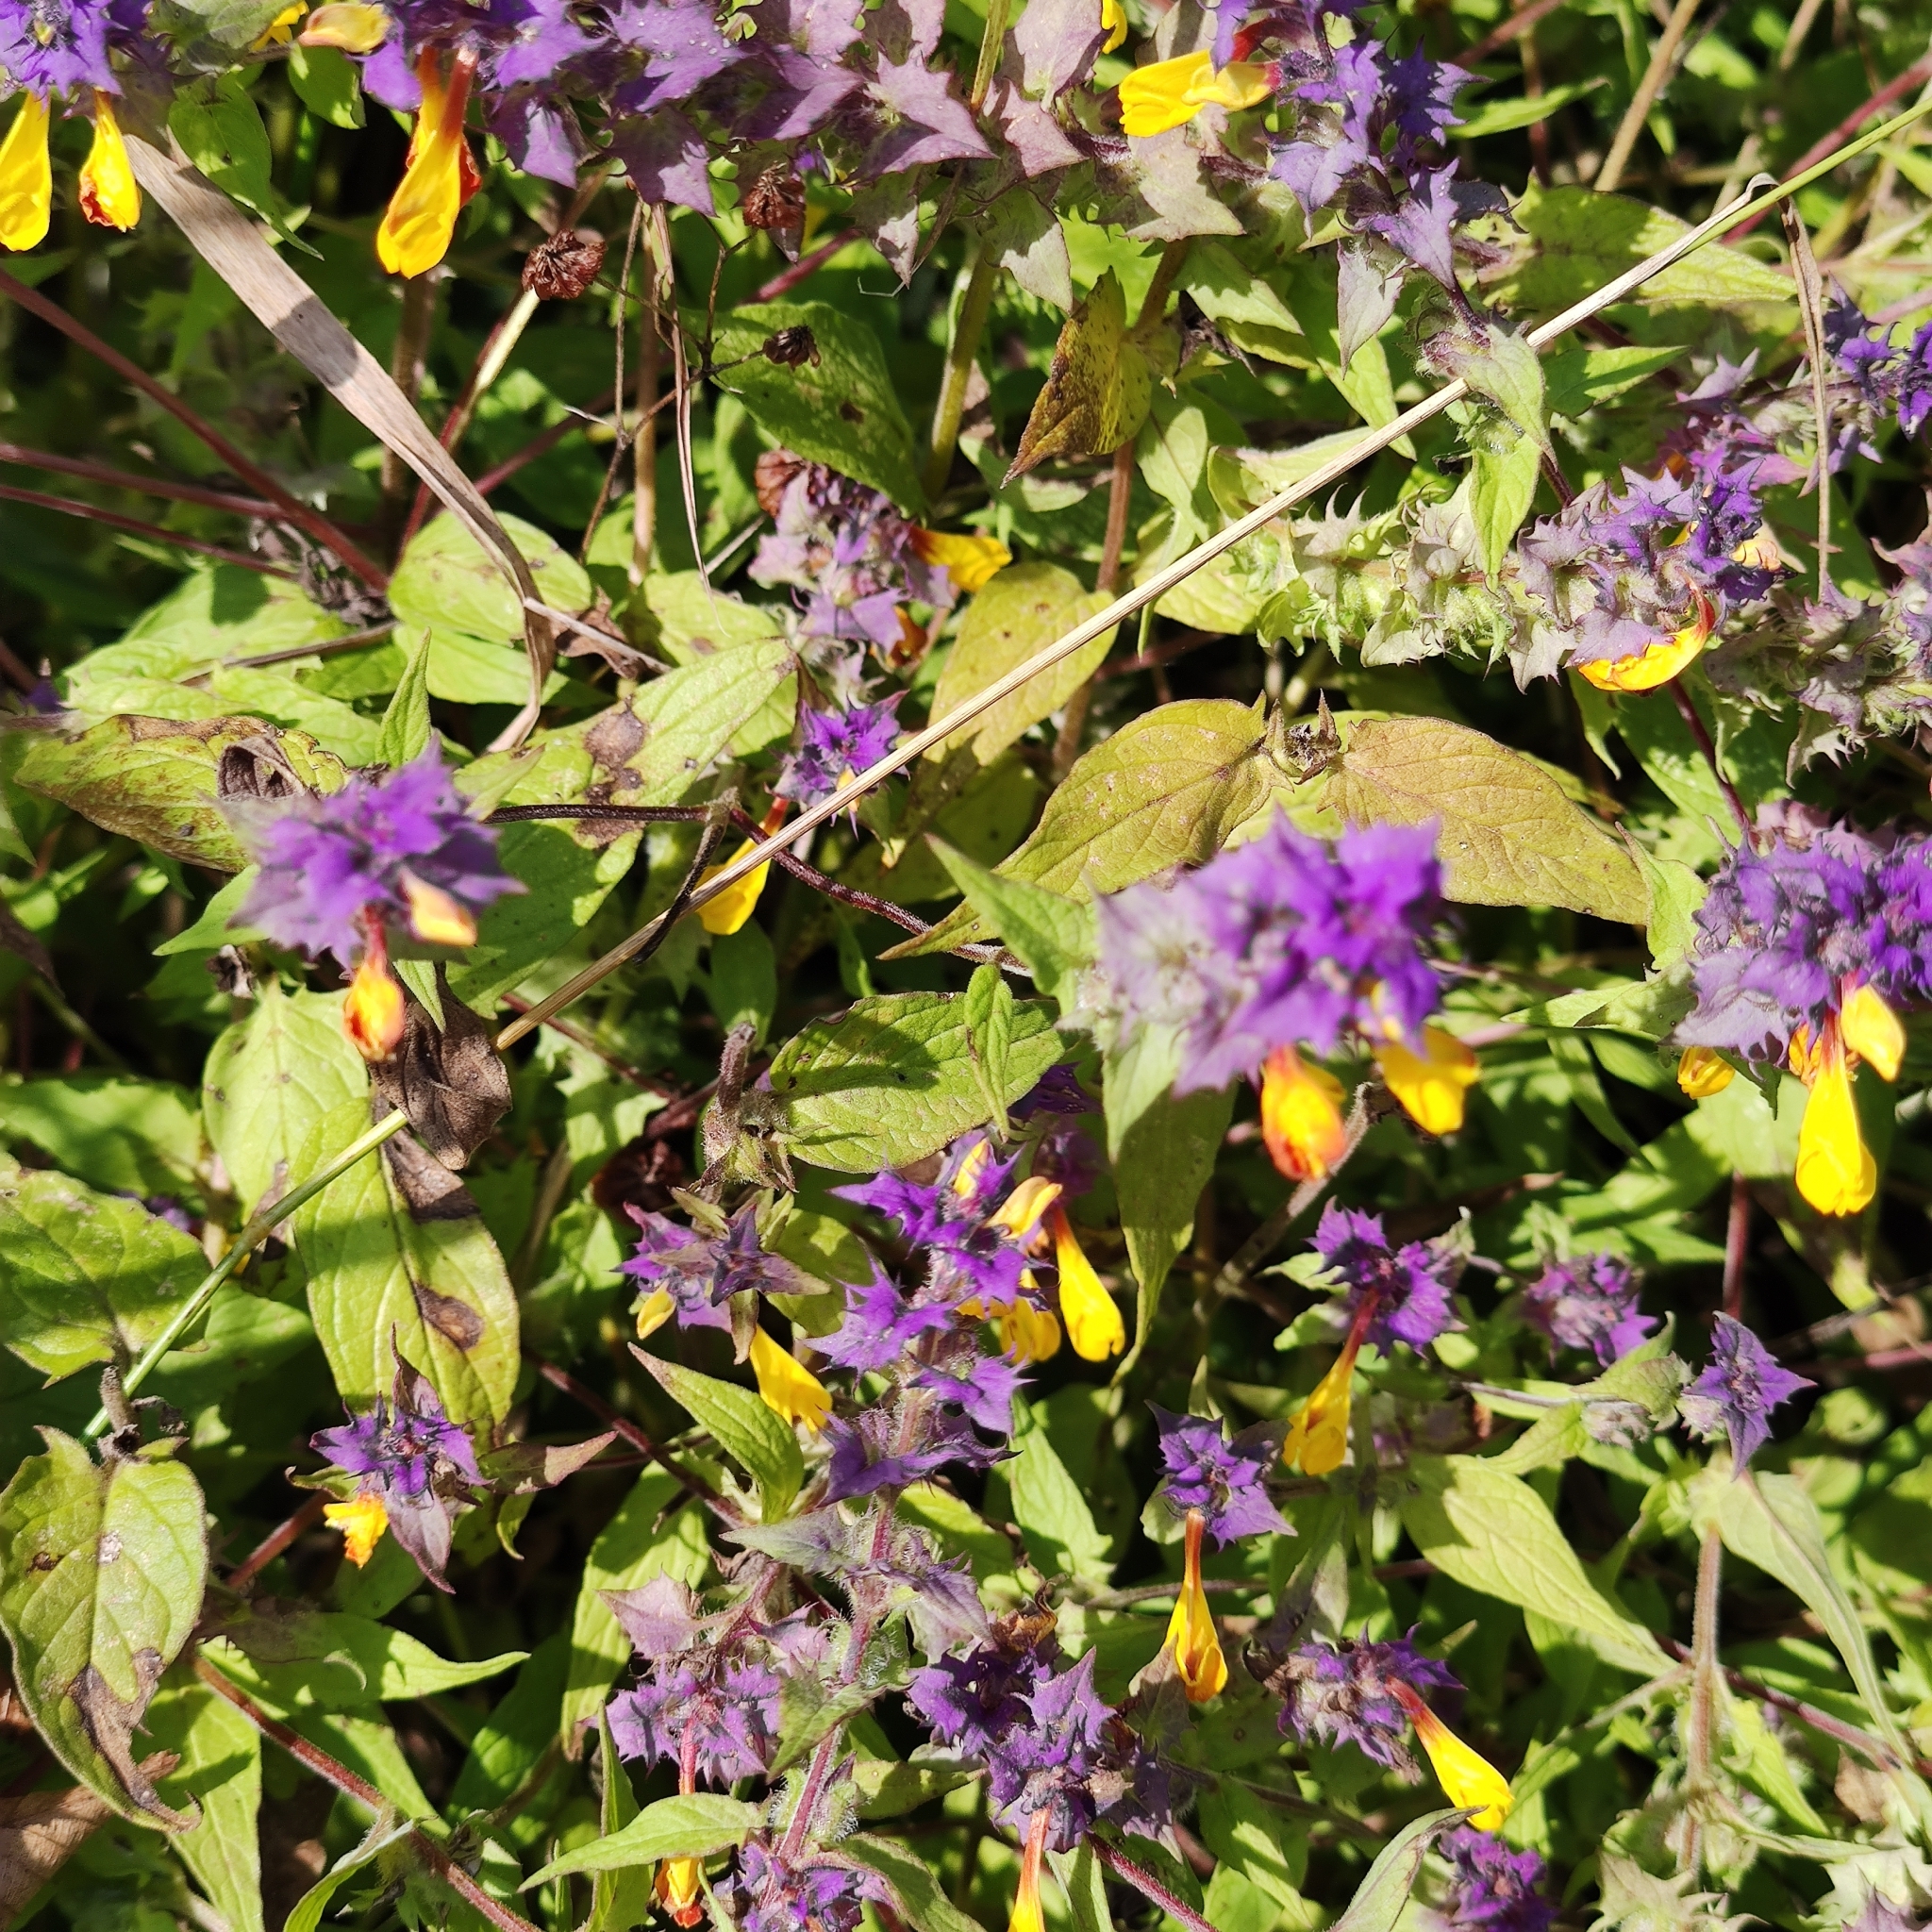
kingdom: Plantae
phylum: Tracheophyta
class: Magnoliopsida
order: Lamiales
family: Orobanchaceae
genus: Melampyrum
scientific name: Melampyrum nemorosum
